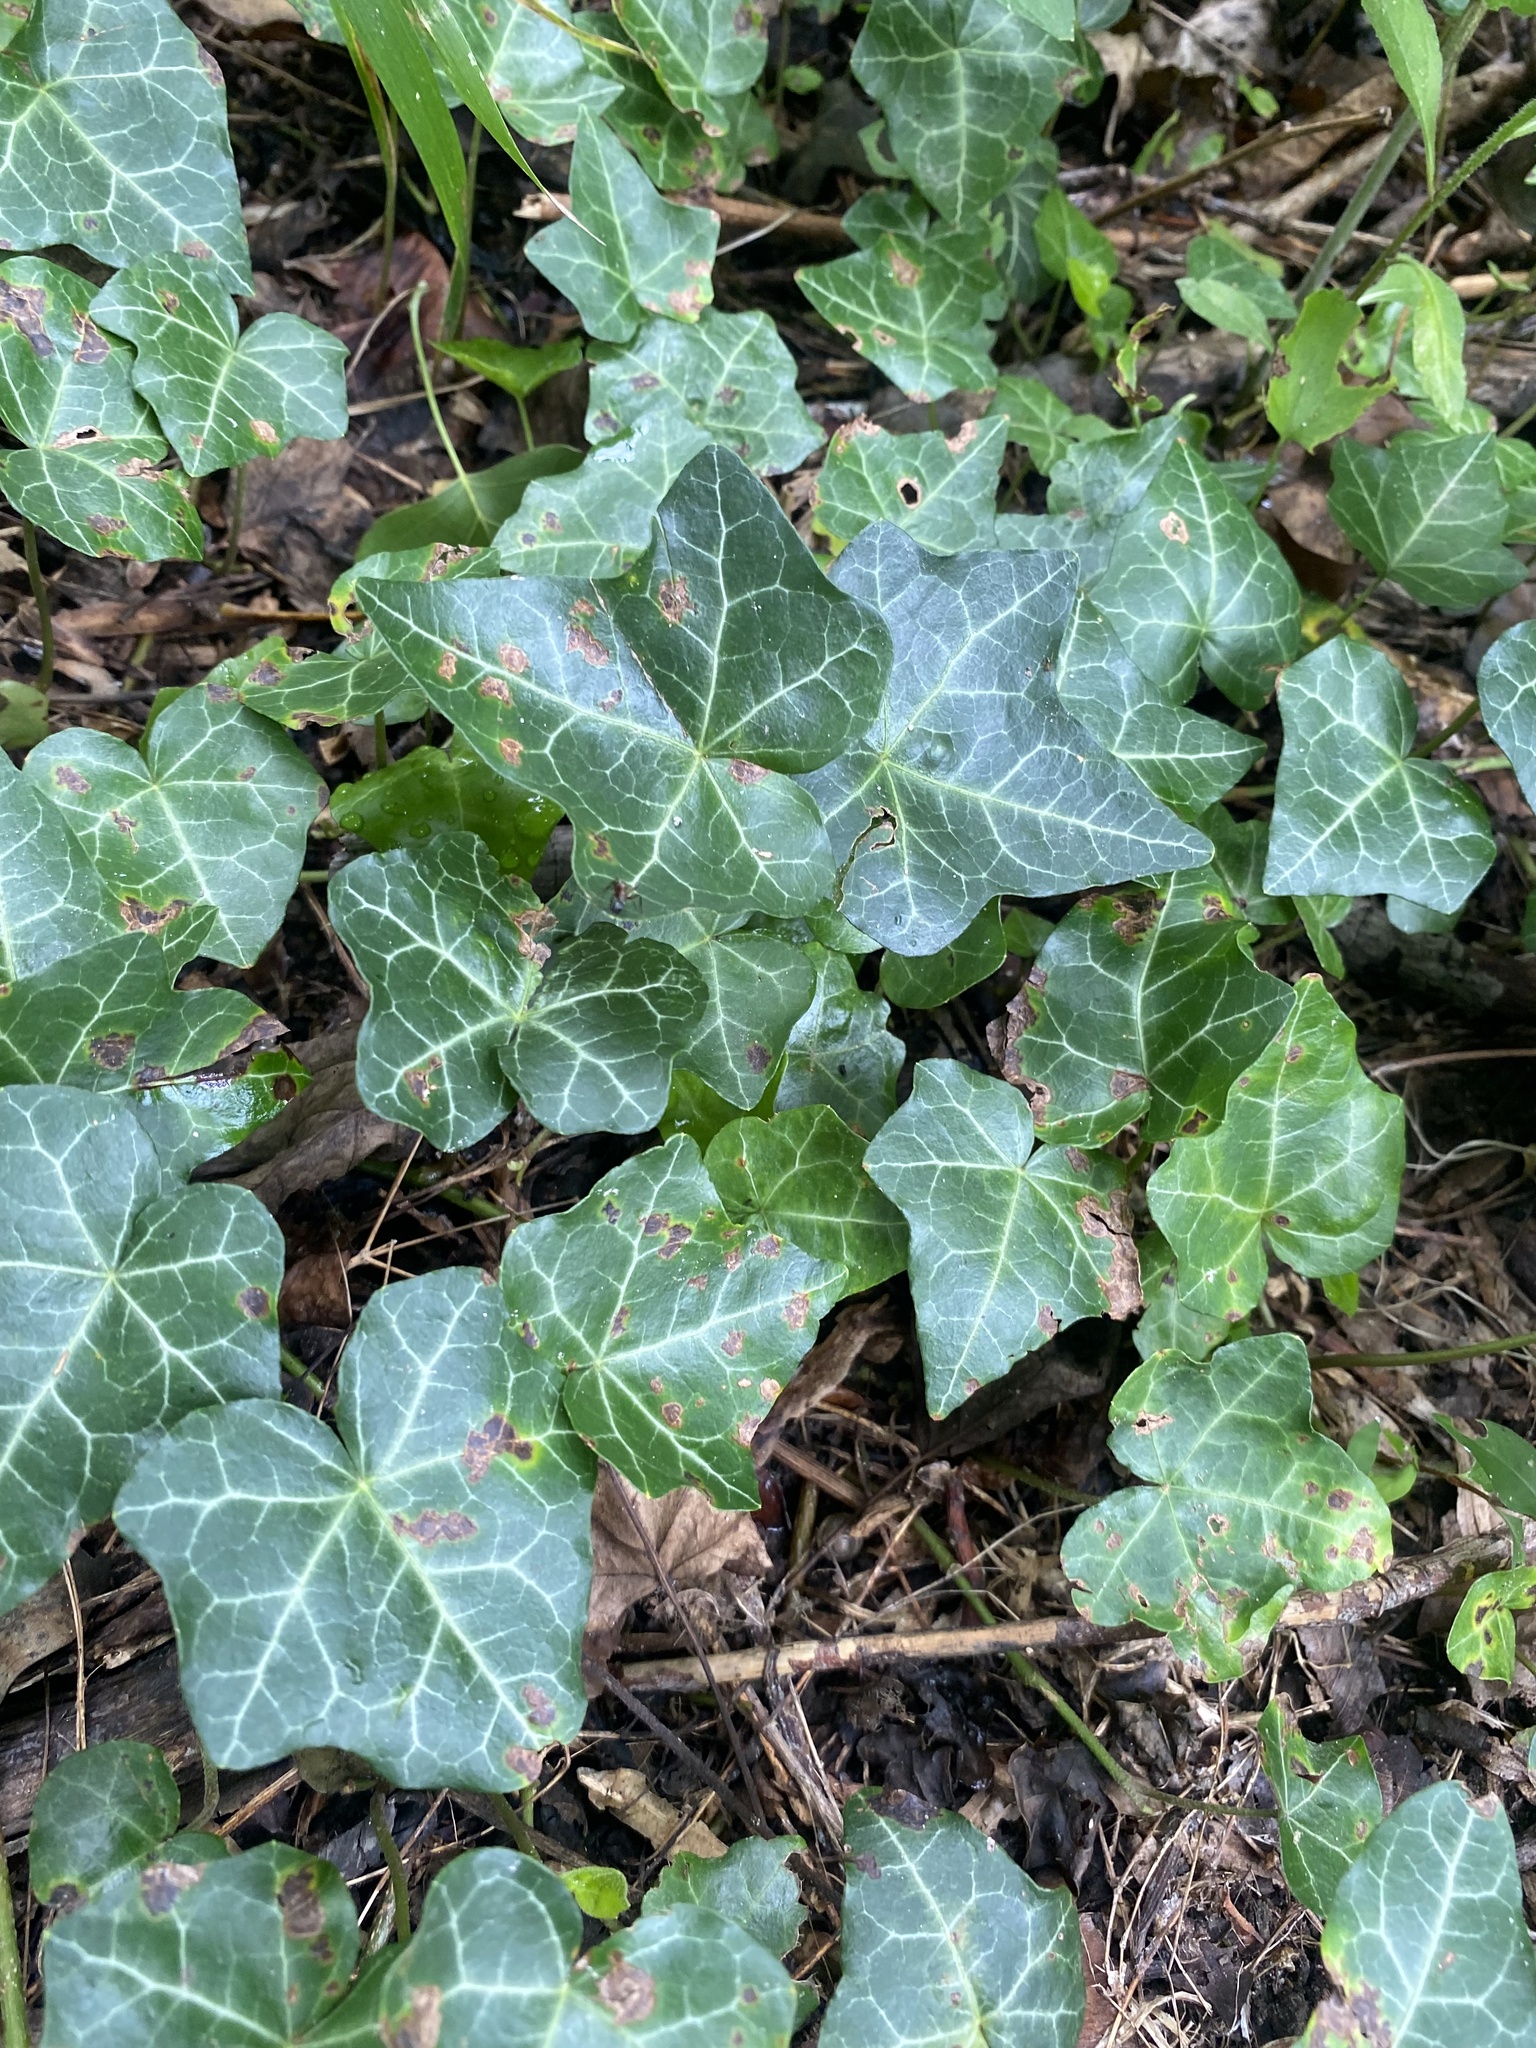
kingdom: Plantae
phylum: Tracheophyta
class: Magnoliopsida
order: Apiales
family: Araliaceae
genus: Hedera
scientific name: Hedera helix
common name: Ivy
